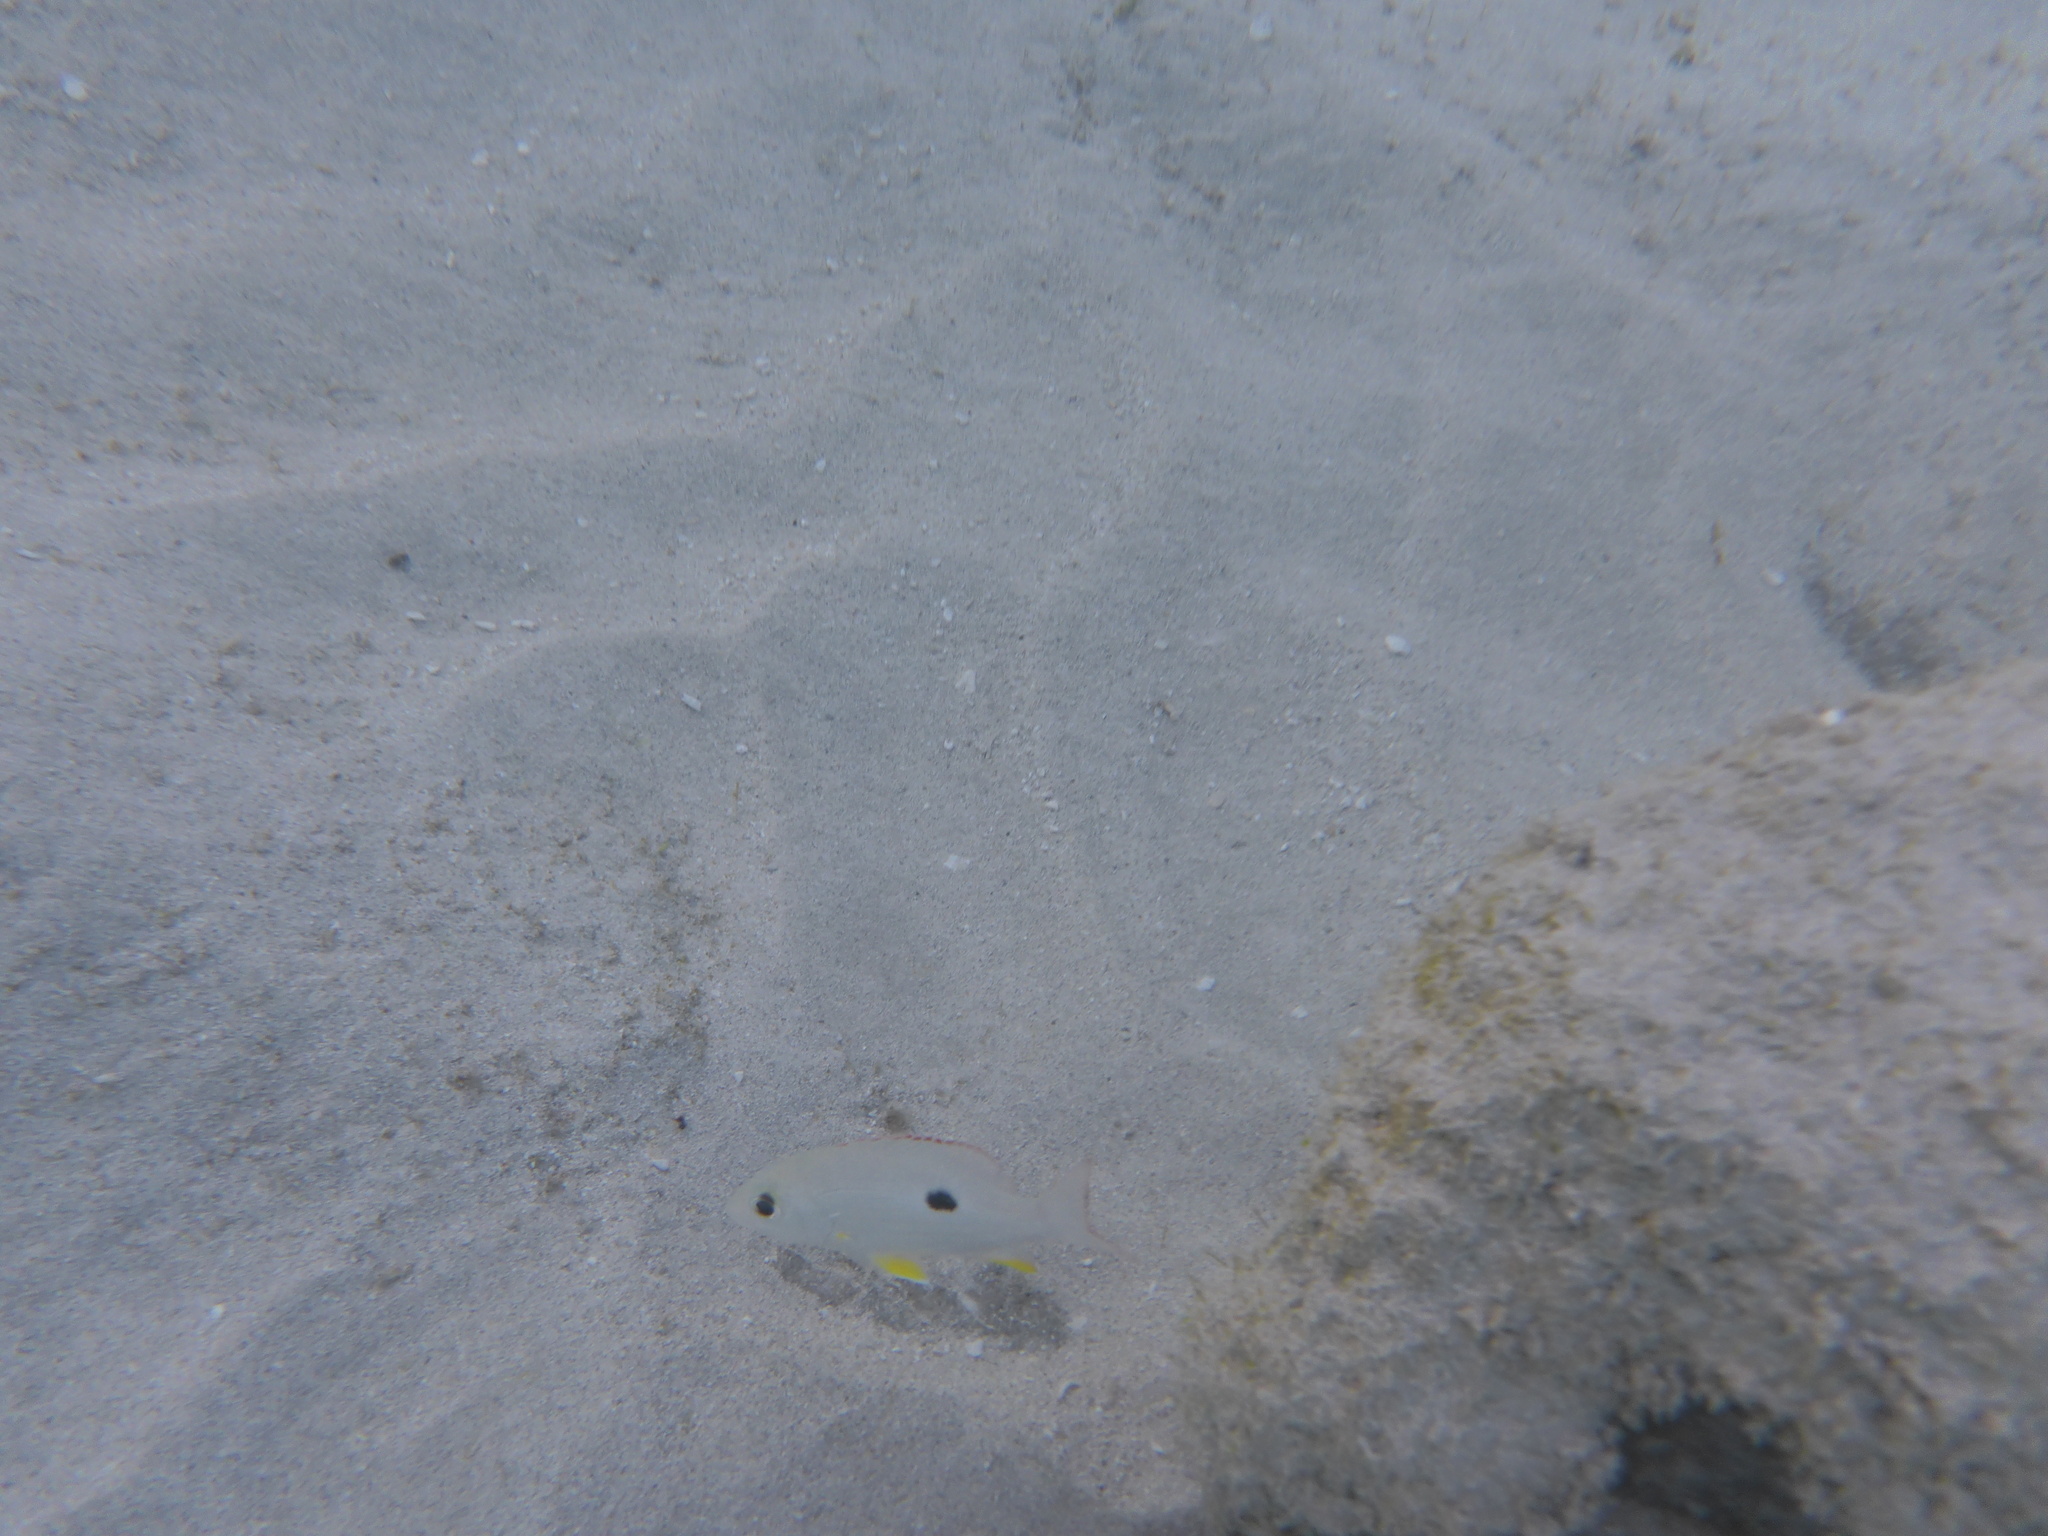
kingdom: Animalia
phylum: Chordata
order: Perciformes
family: Lutjanidae
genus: Lutjanus
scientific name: Lutjanus synagris
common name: Lane snapper
